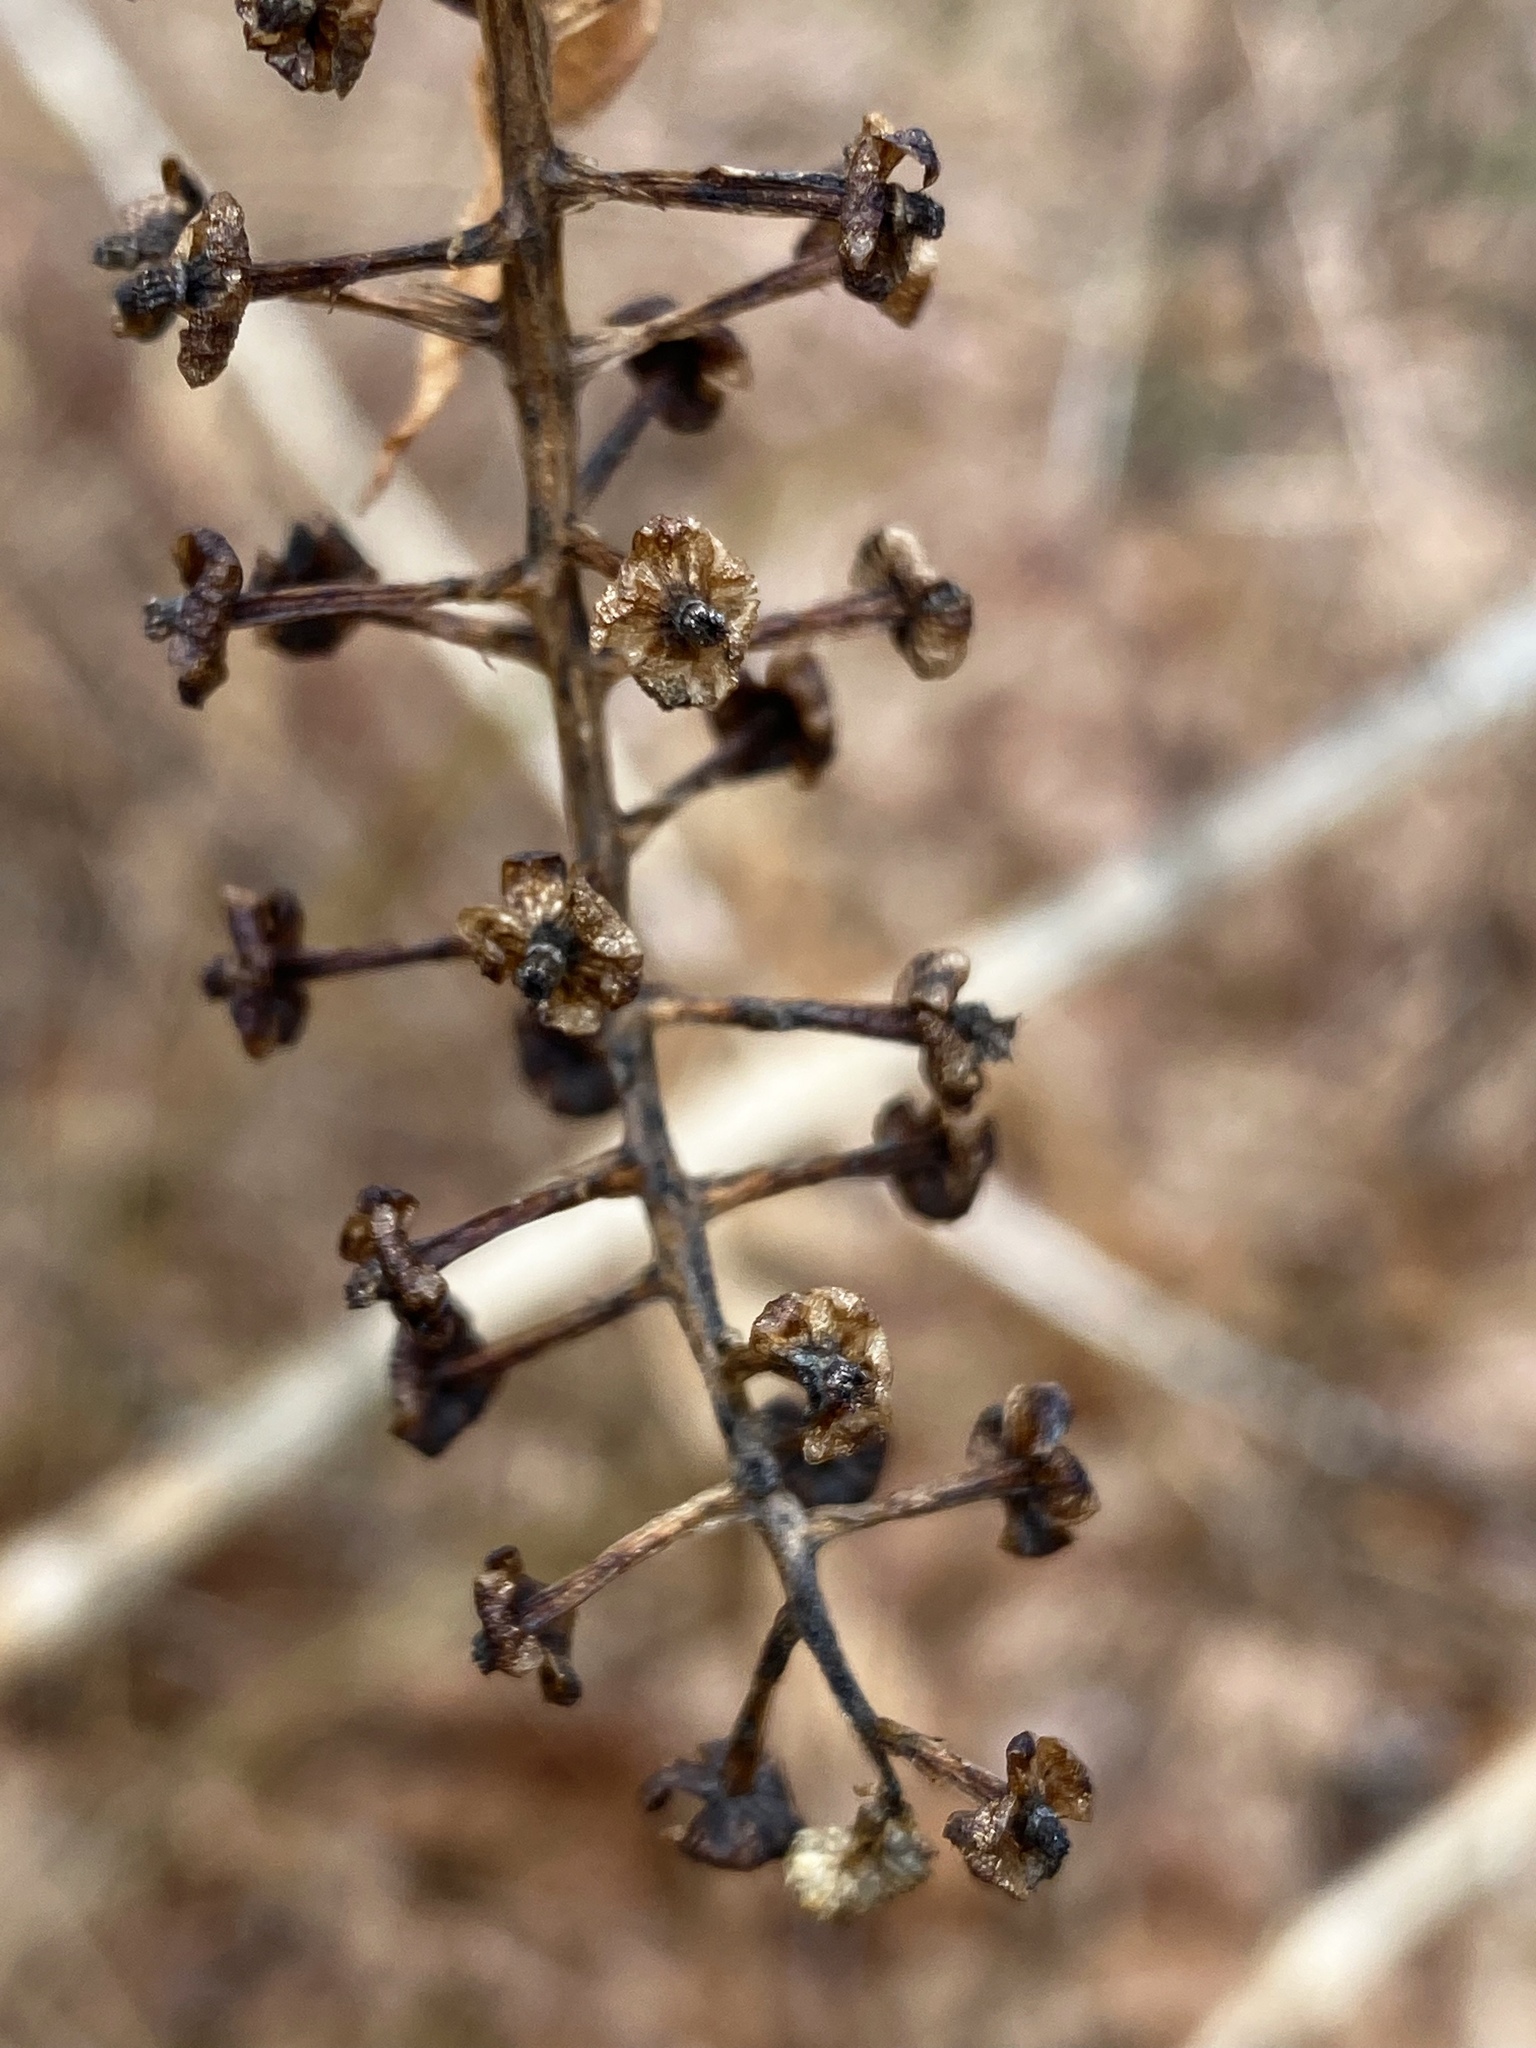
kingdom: Plantae
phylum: Tracheophyta
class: Magnoliopsida
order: Caryophyllales
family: Phytolaccaceae
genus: Phytolacca
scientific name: Phytolacca americana
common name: American pokeweed
